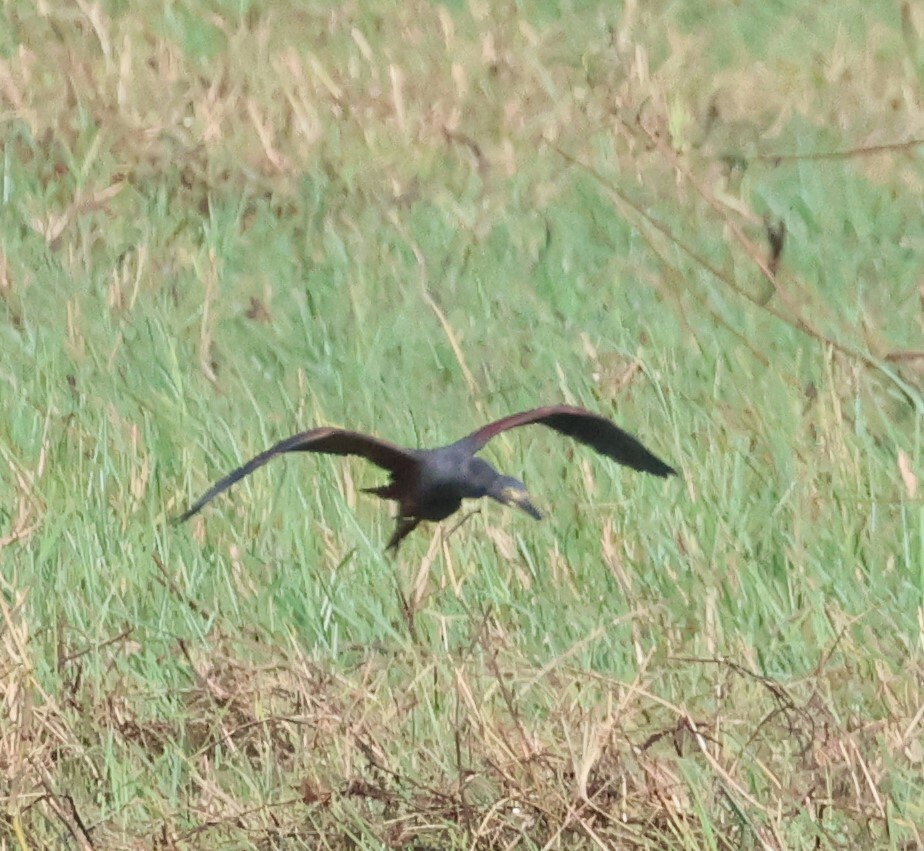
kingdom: Animalia
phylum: Chordata
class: Aves
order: Pelecaniformes
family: Ardeidae
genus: Ardeola
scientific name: Ardeola rufiventris
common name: Rufous-bellied heron
